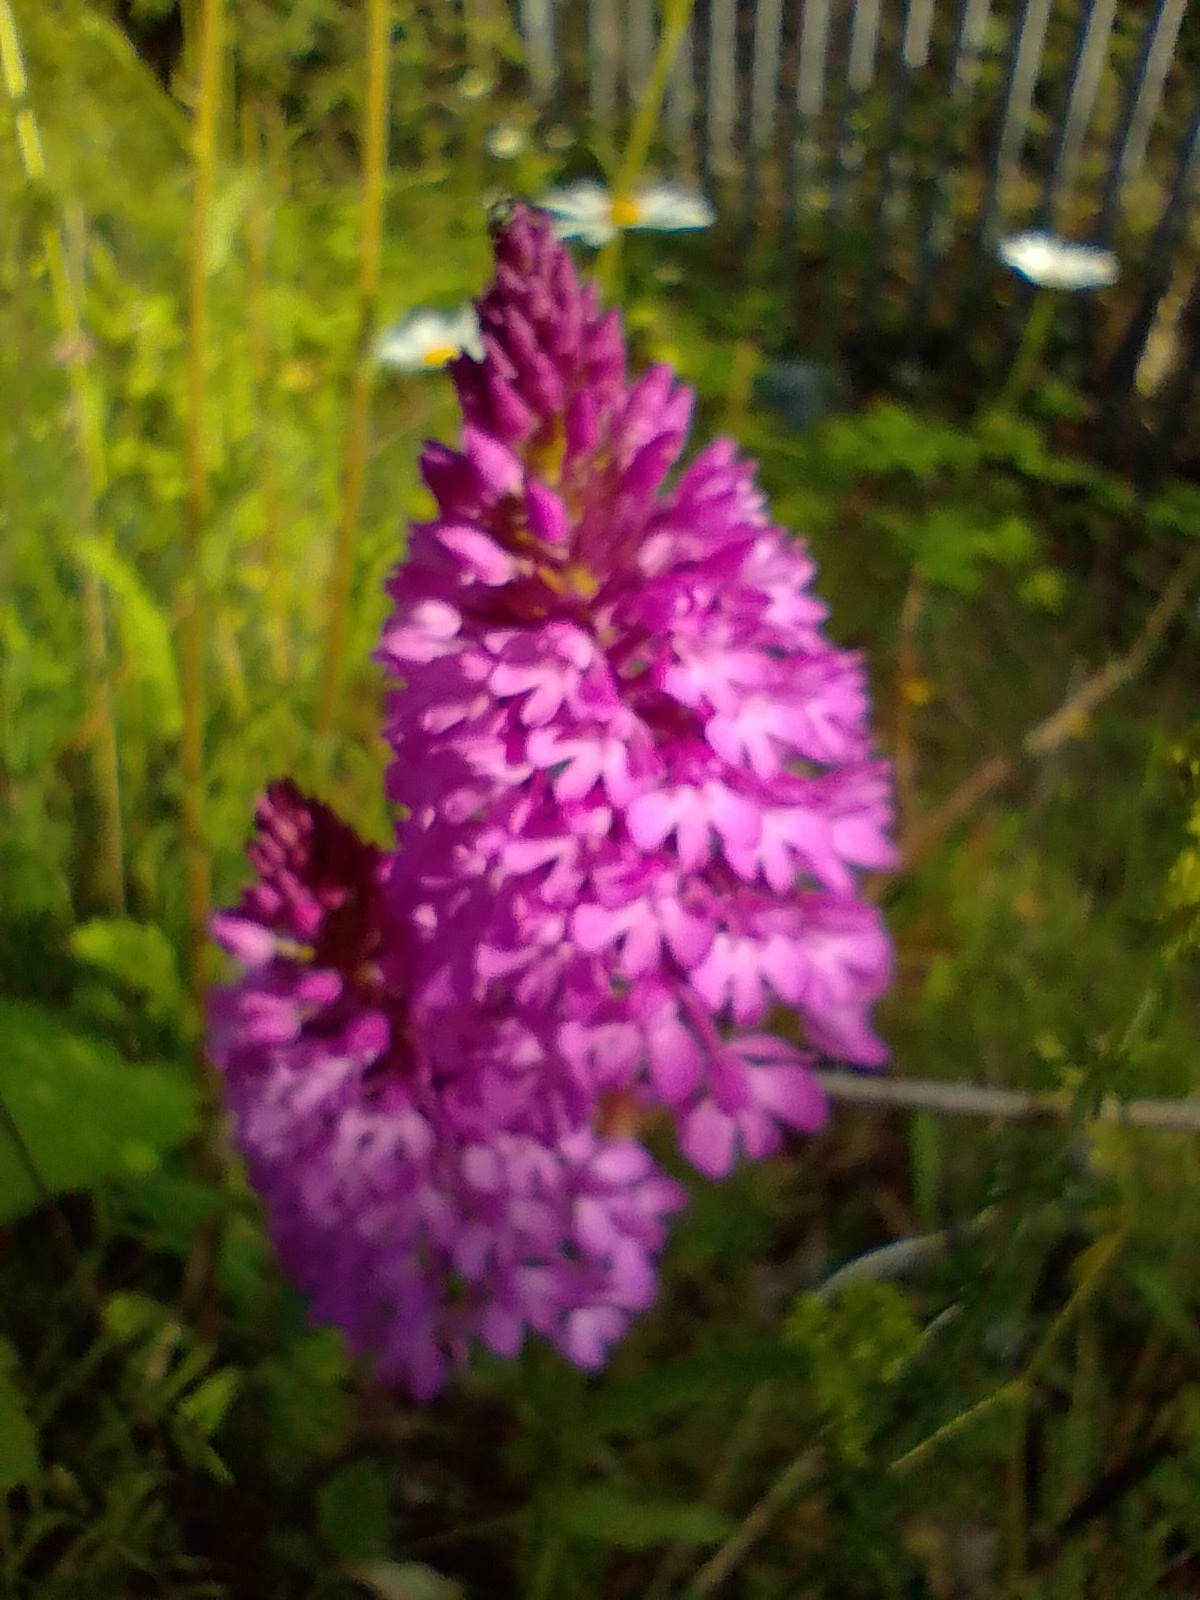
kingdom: Plantae
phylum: Tracheophyta
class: Liliopsida
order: Asparagales
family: Orchidaceae
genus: Anacamptis
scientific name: Anacamptis pyramidalis
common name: Pyramidal orchid
